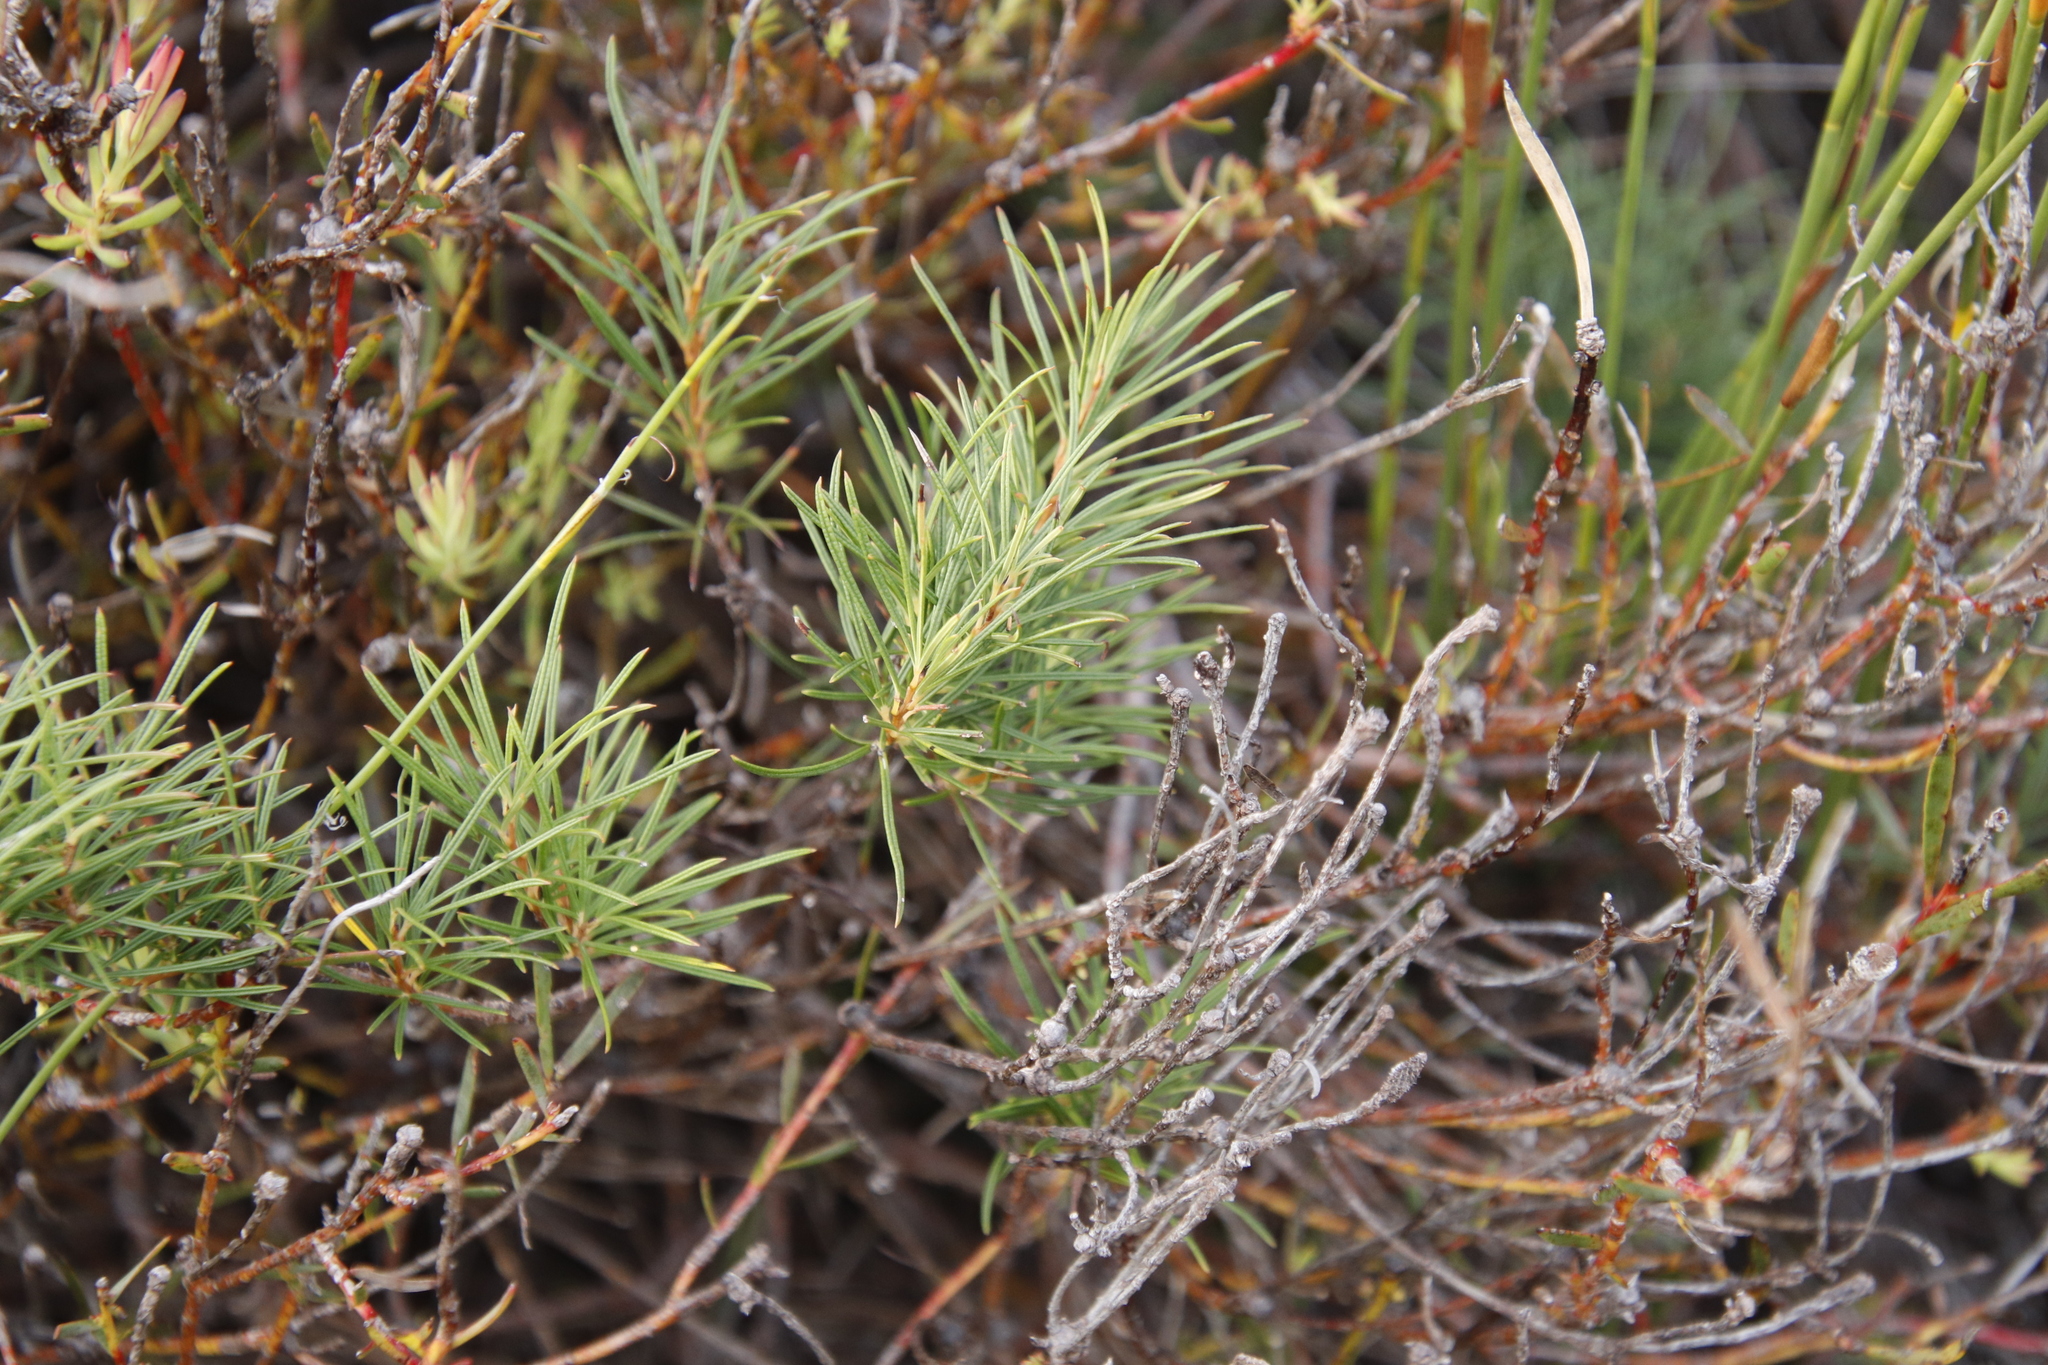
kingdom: Plantae
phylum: Tracheophyta
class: Magnoliopsida
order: Sapindales
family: Anacardiaceae
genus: Searsia
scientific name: Searsia rosmarinifolia
